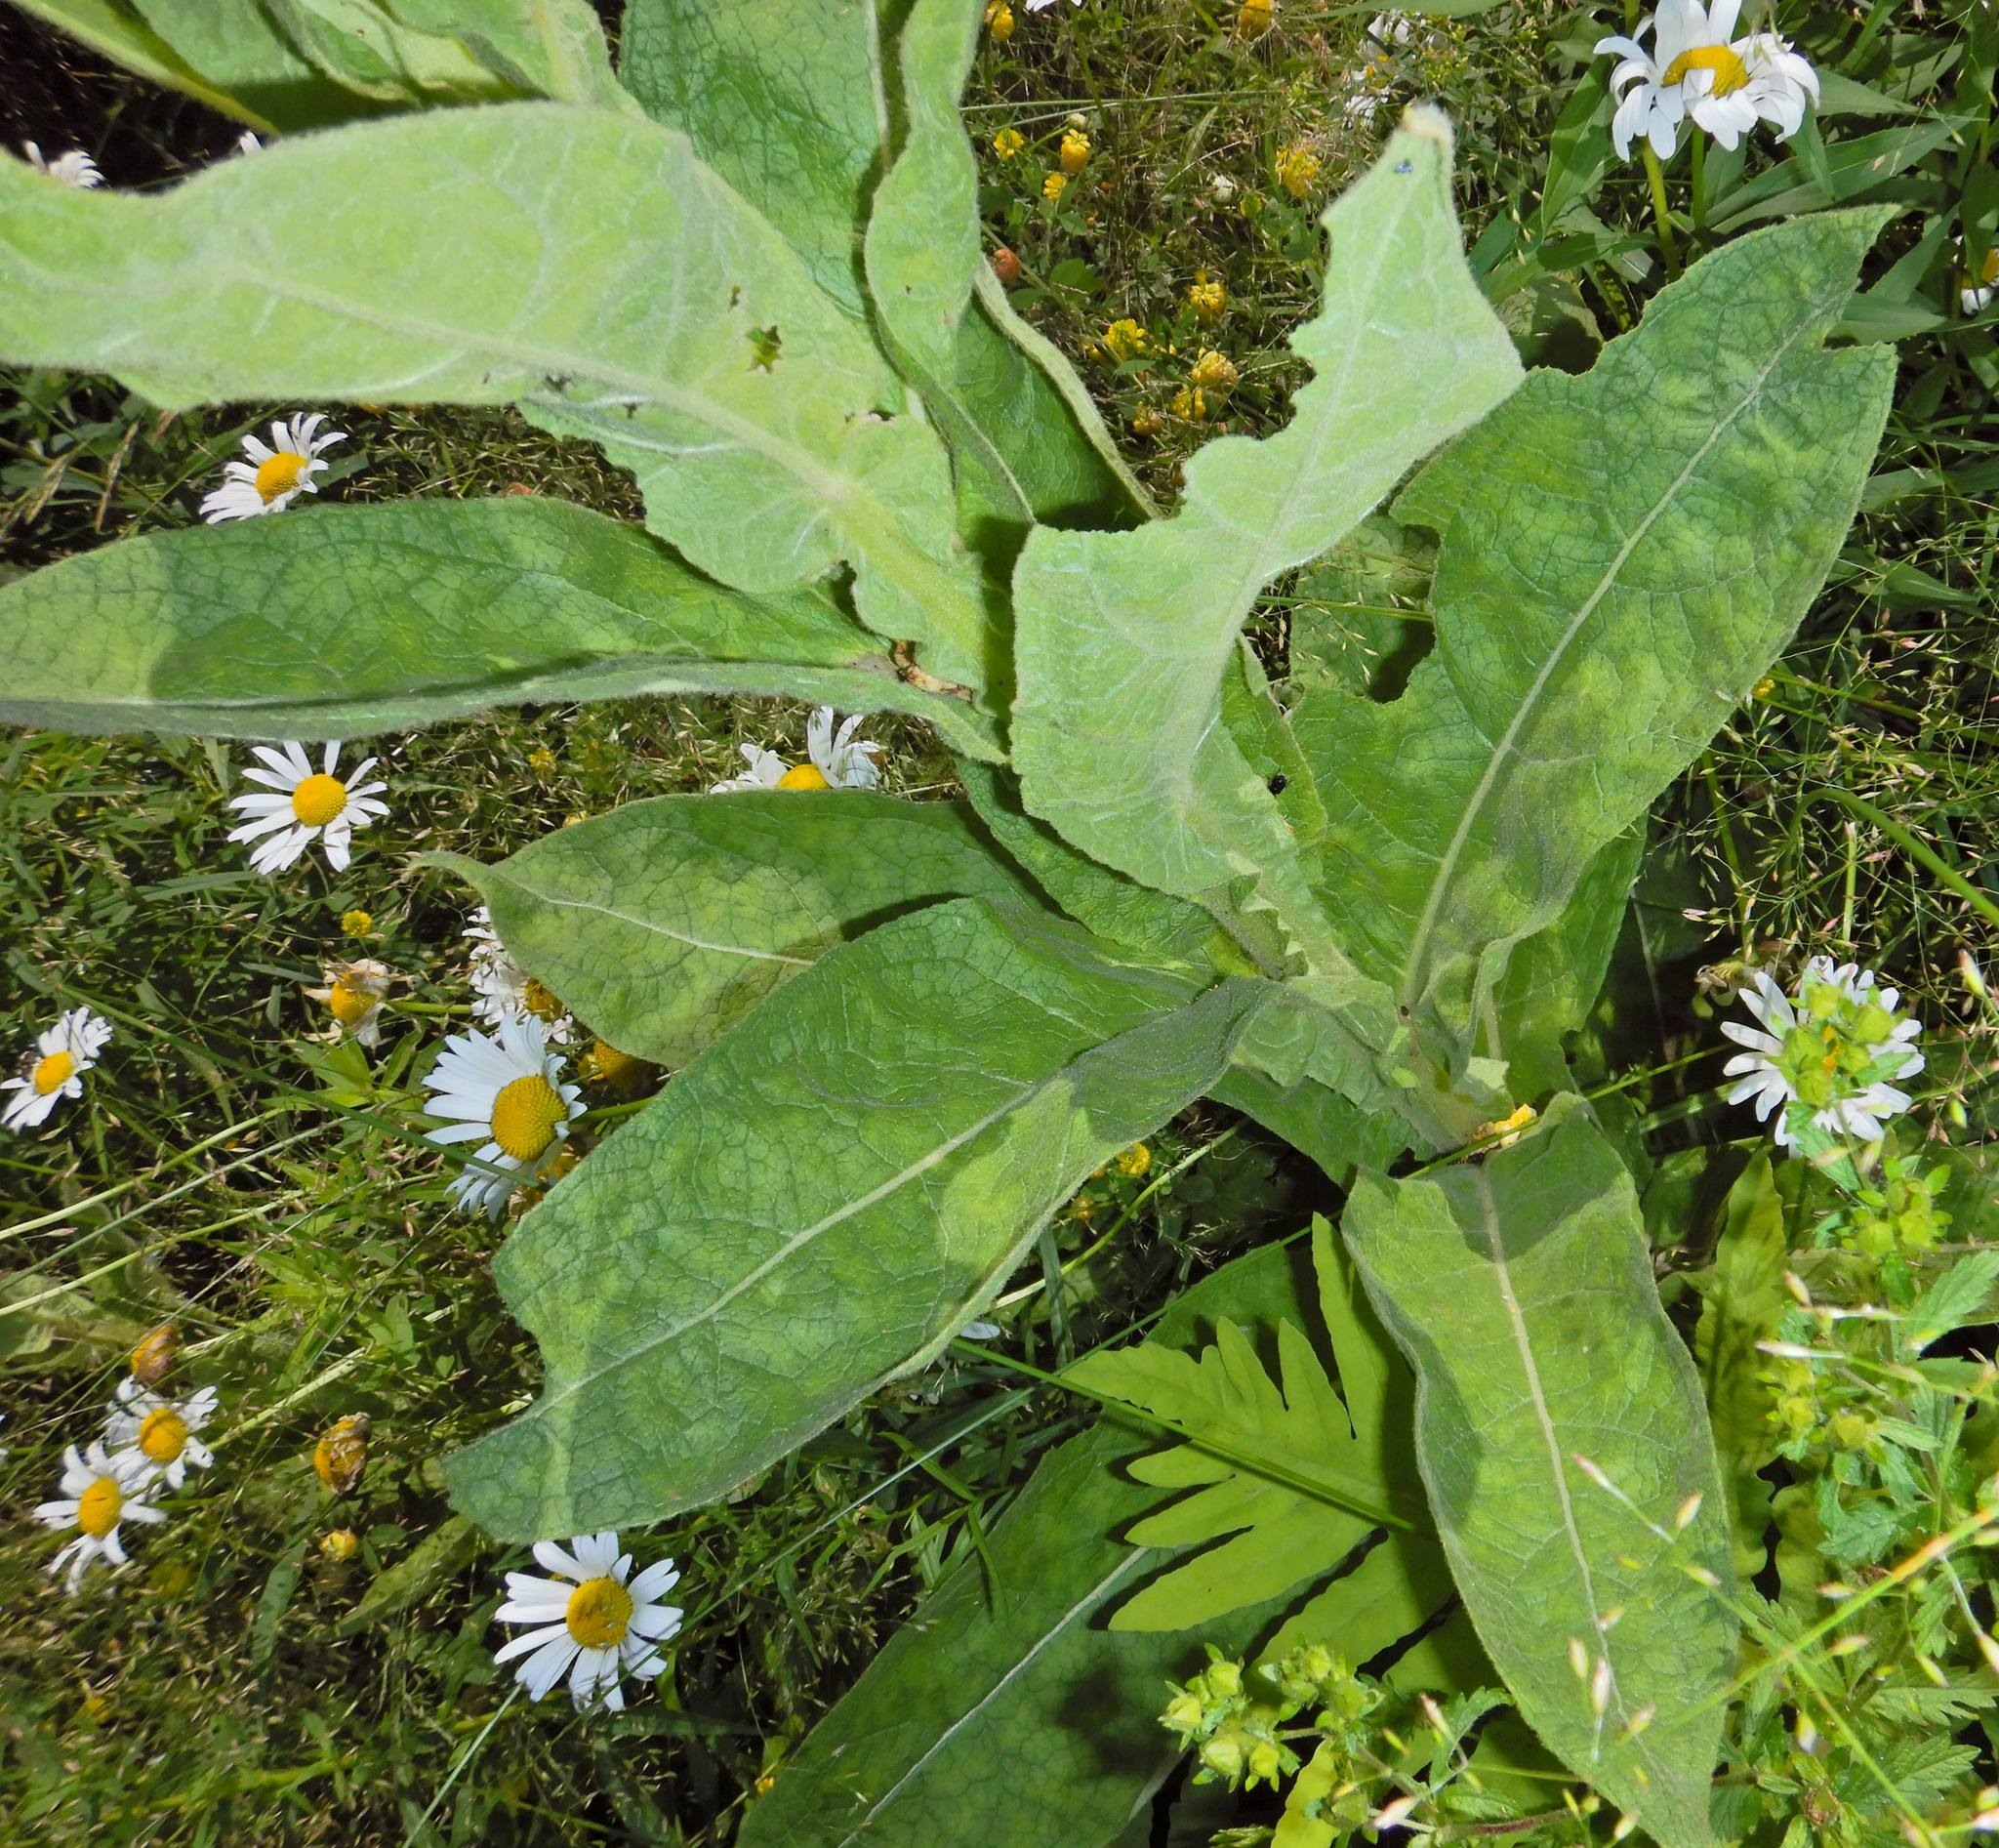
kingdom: Plantae
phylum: Tracheophyta
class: Magnoliopsida
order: Lamiales
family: Scrophulariaceae
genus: Verbascum
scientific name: Verbascum thapsus
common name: Common mullein
